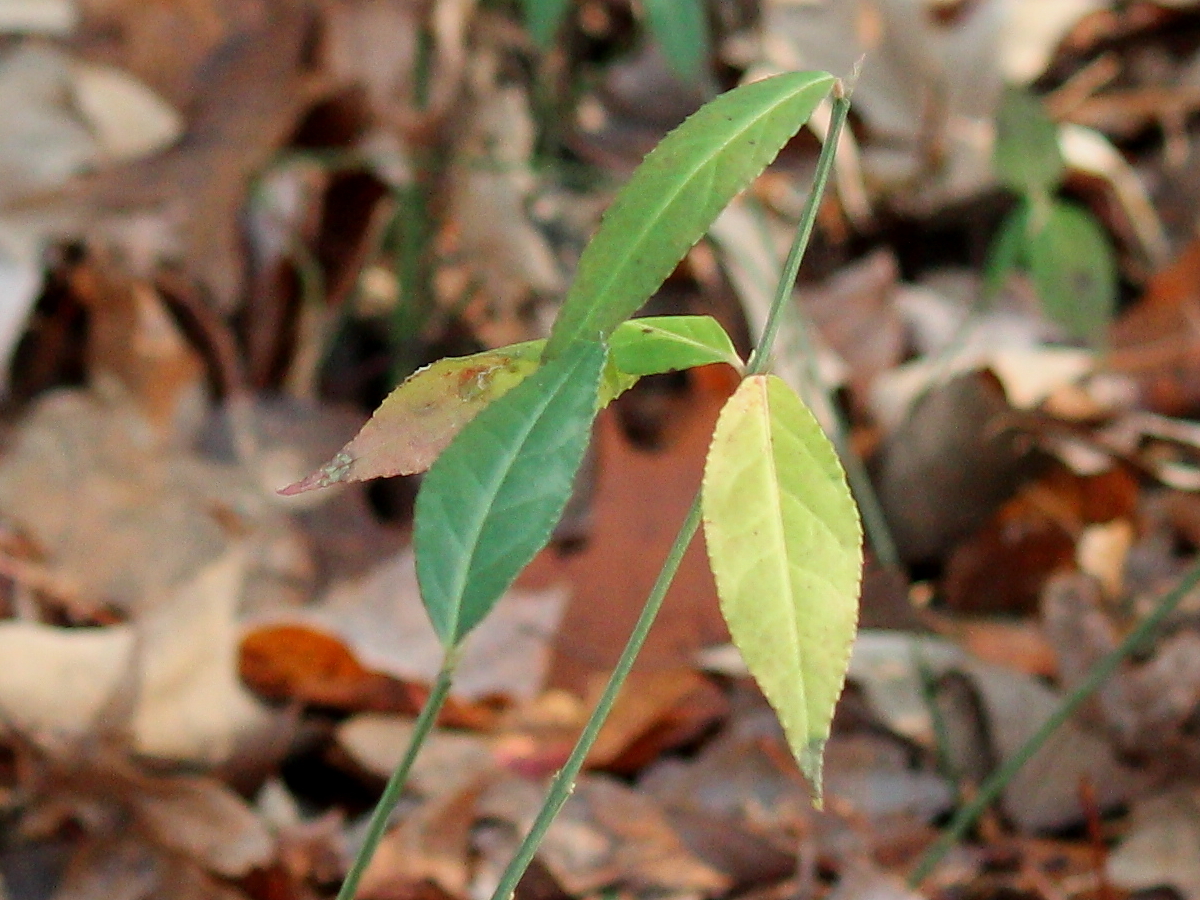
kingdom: Plantae
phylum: Tracheophyta
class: Magnoliopsida
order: Celastrales
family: Celastraceae
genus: Euonymus
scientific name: Euonymus americanus
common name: Bursting-heart
